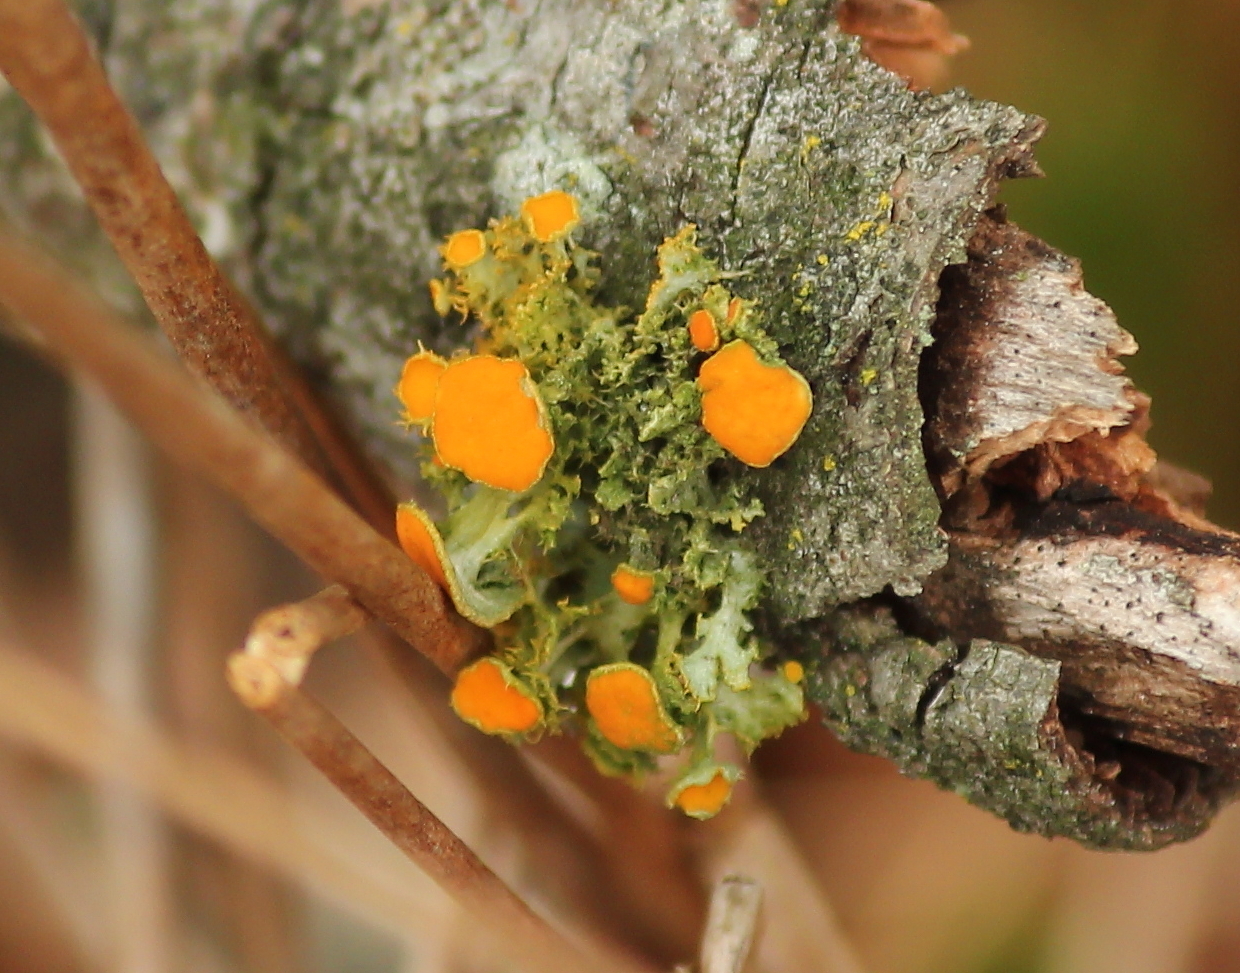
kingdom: Fungi
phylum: Ascomycota
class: Lecanoromycetes
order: Teloschistales
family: Teloschistaceae
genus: Niorma
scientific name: Niorma chrysophthalma
